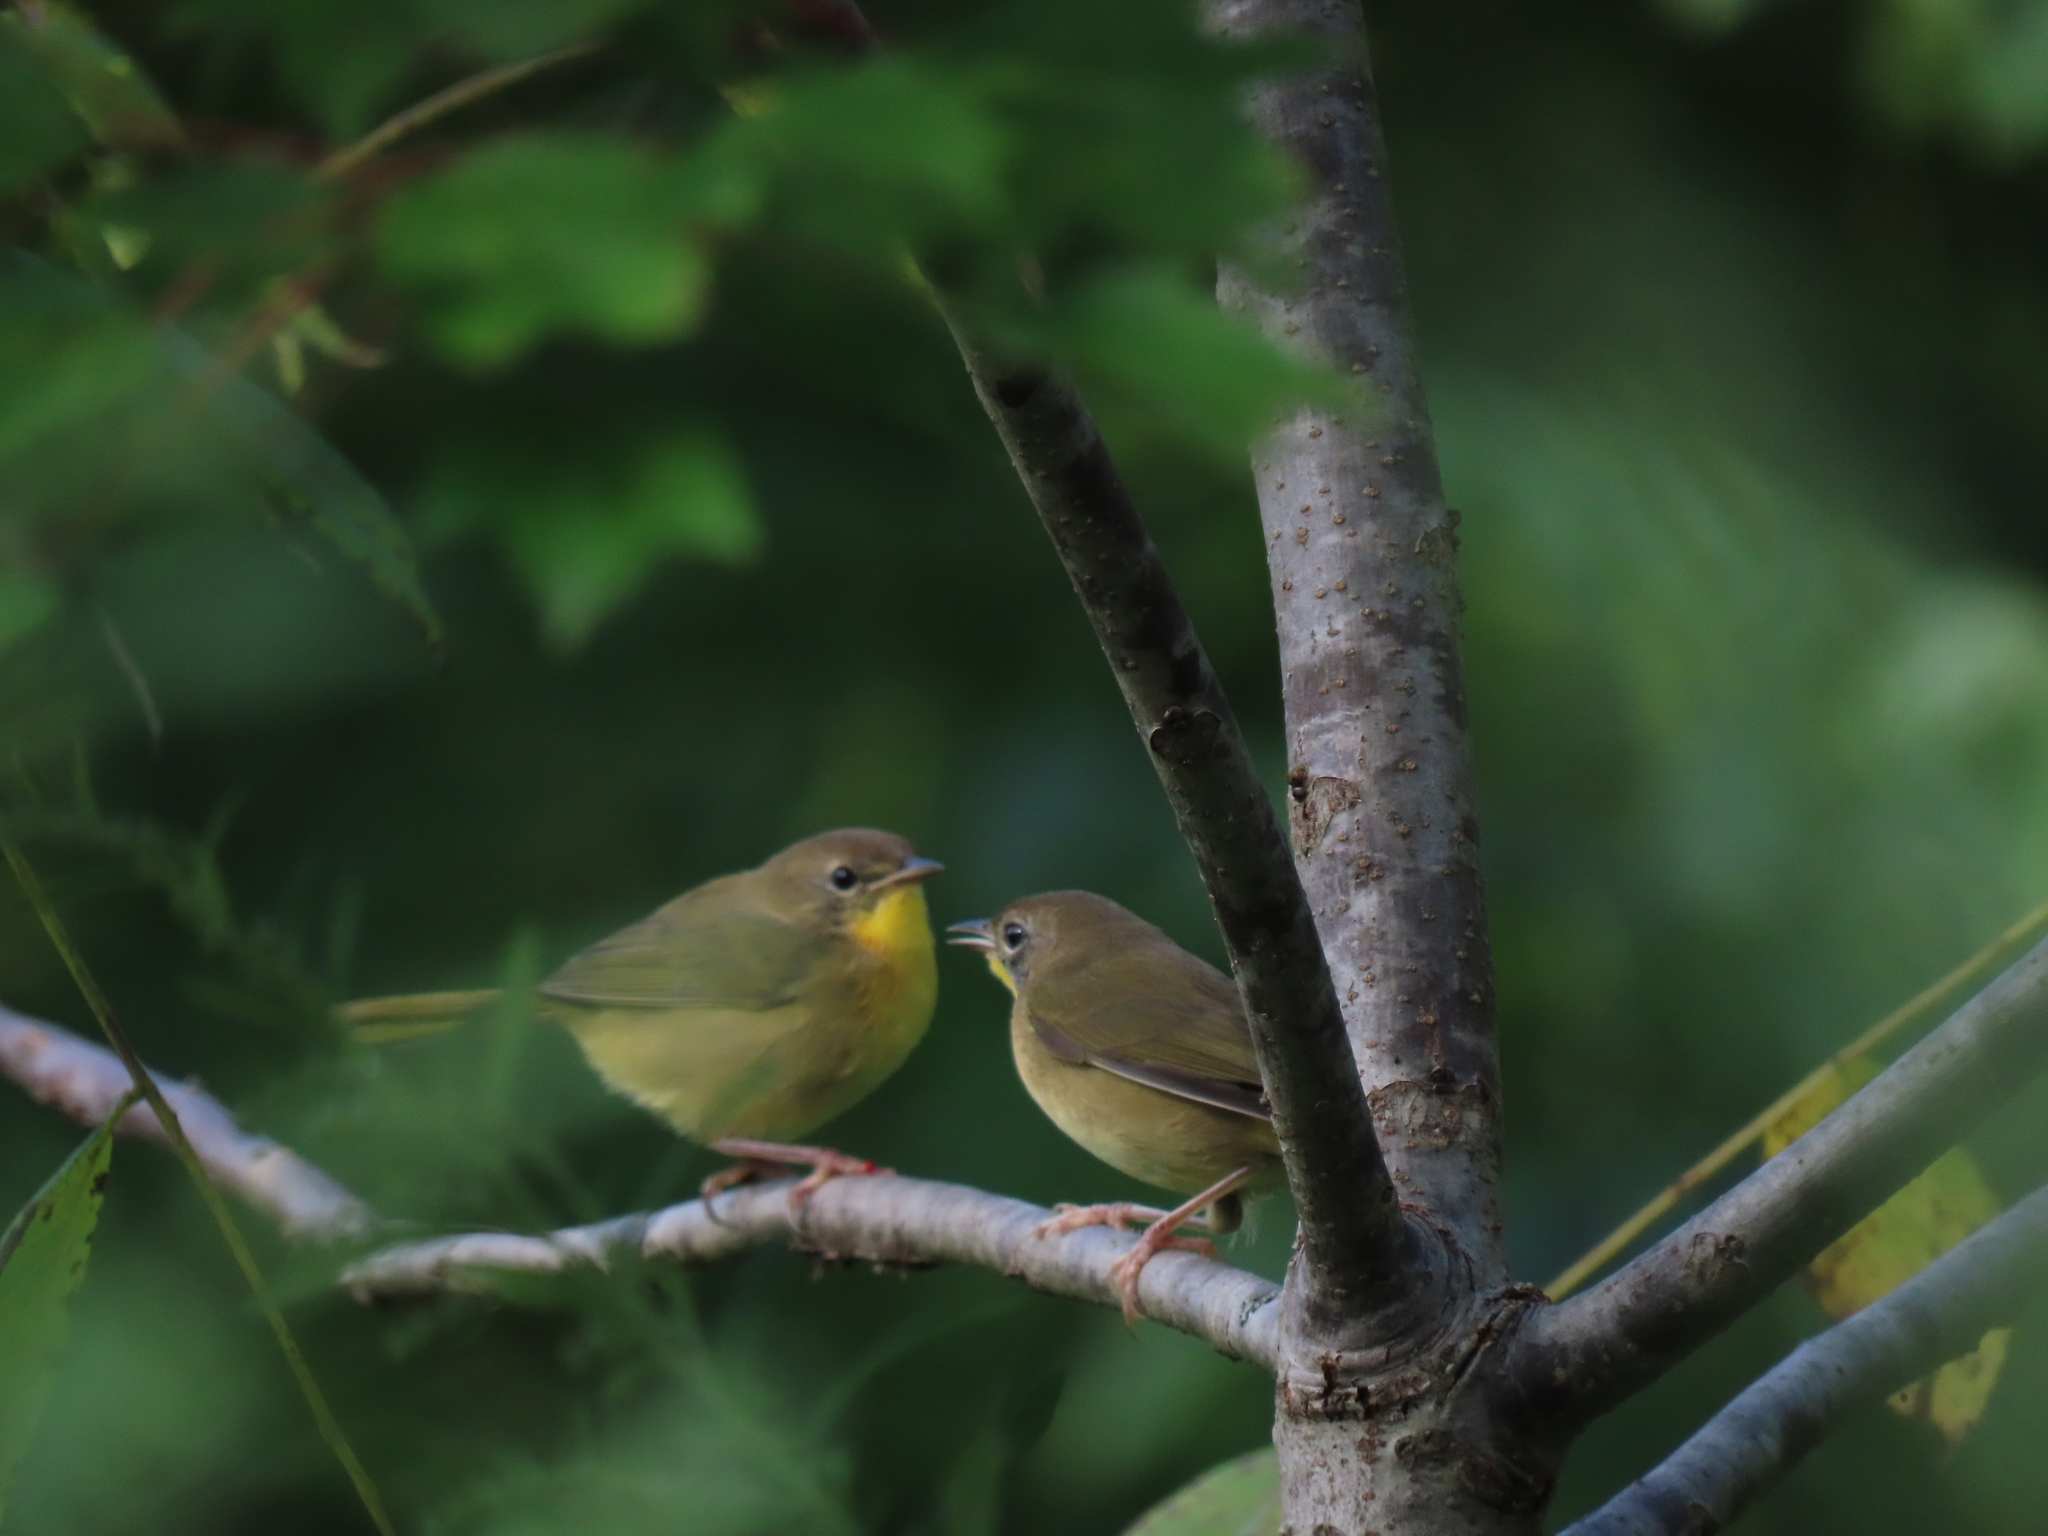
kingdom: Animalia
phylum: Chordata
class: Aves
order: Passeriformes
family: Parulidae
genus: Geothlypis
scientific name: Geothlypis trichas
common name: Common yellowthroat
